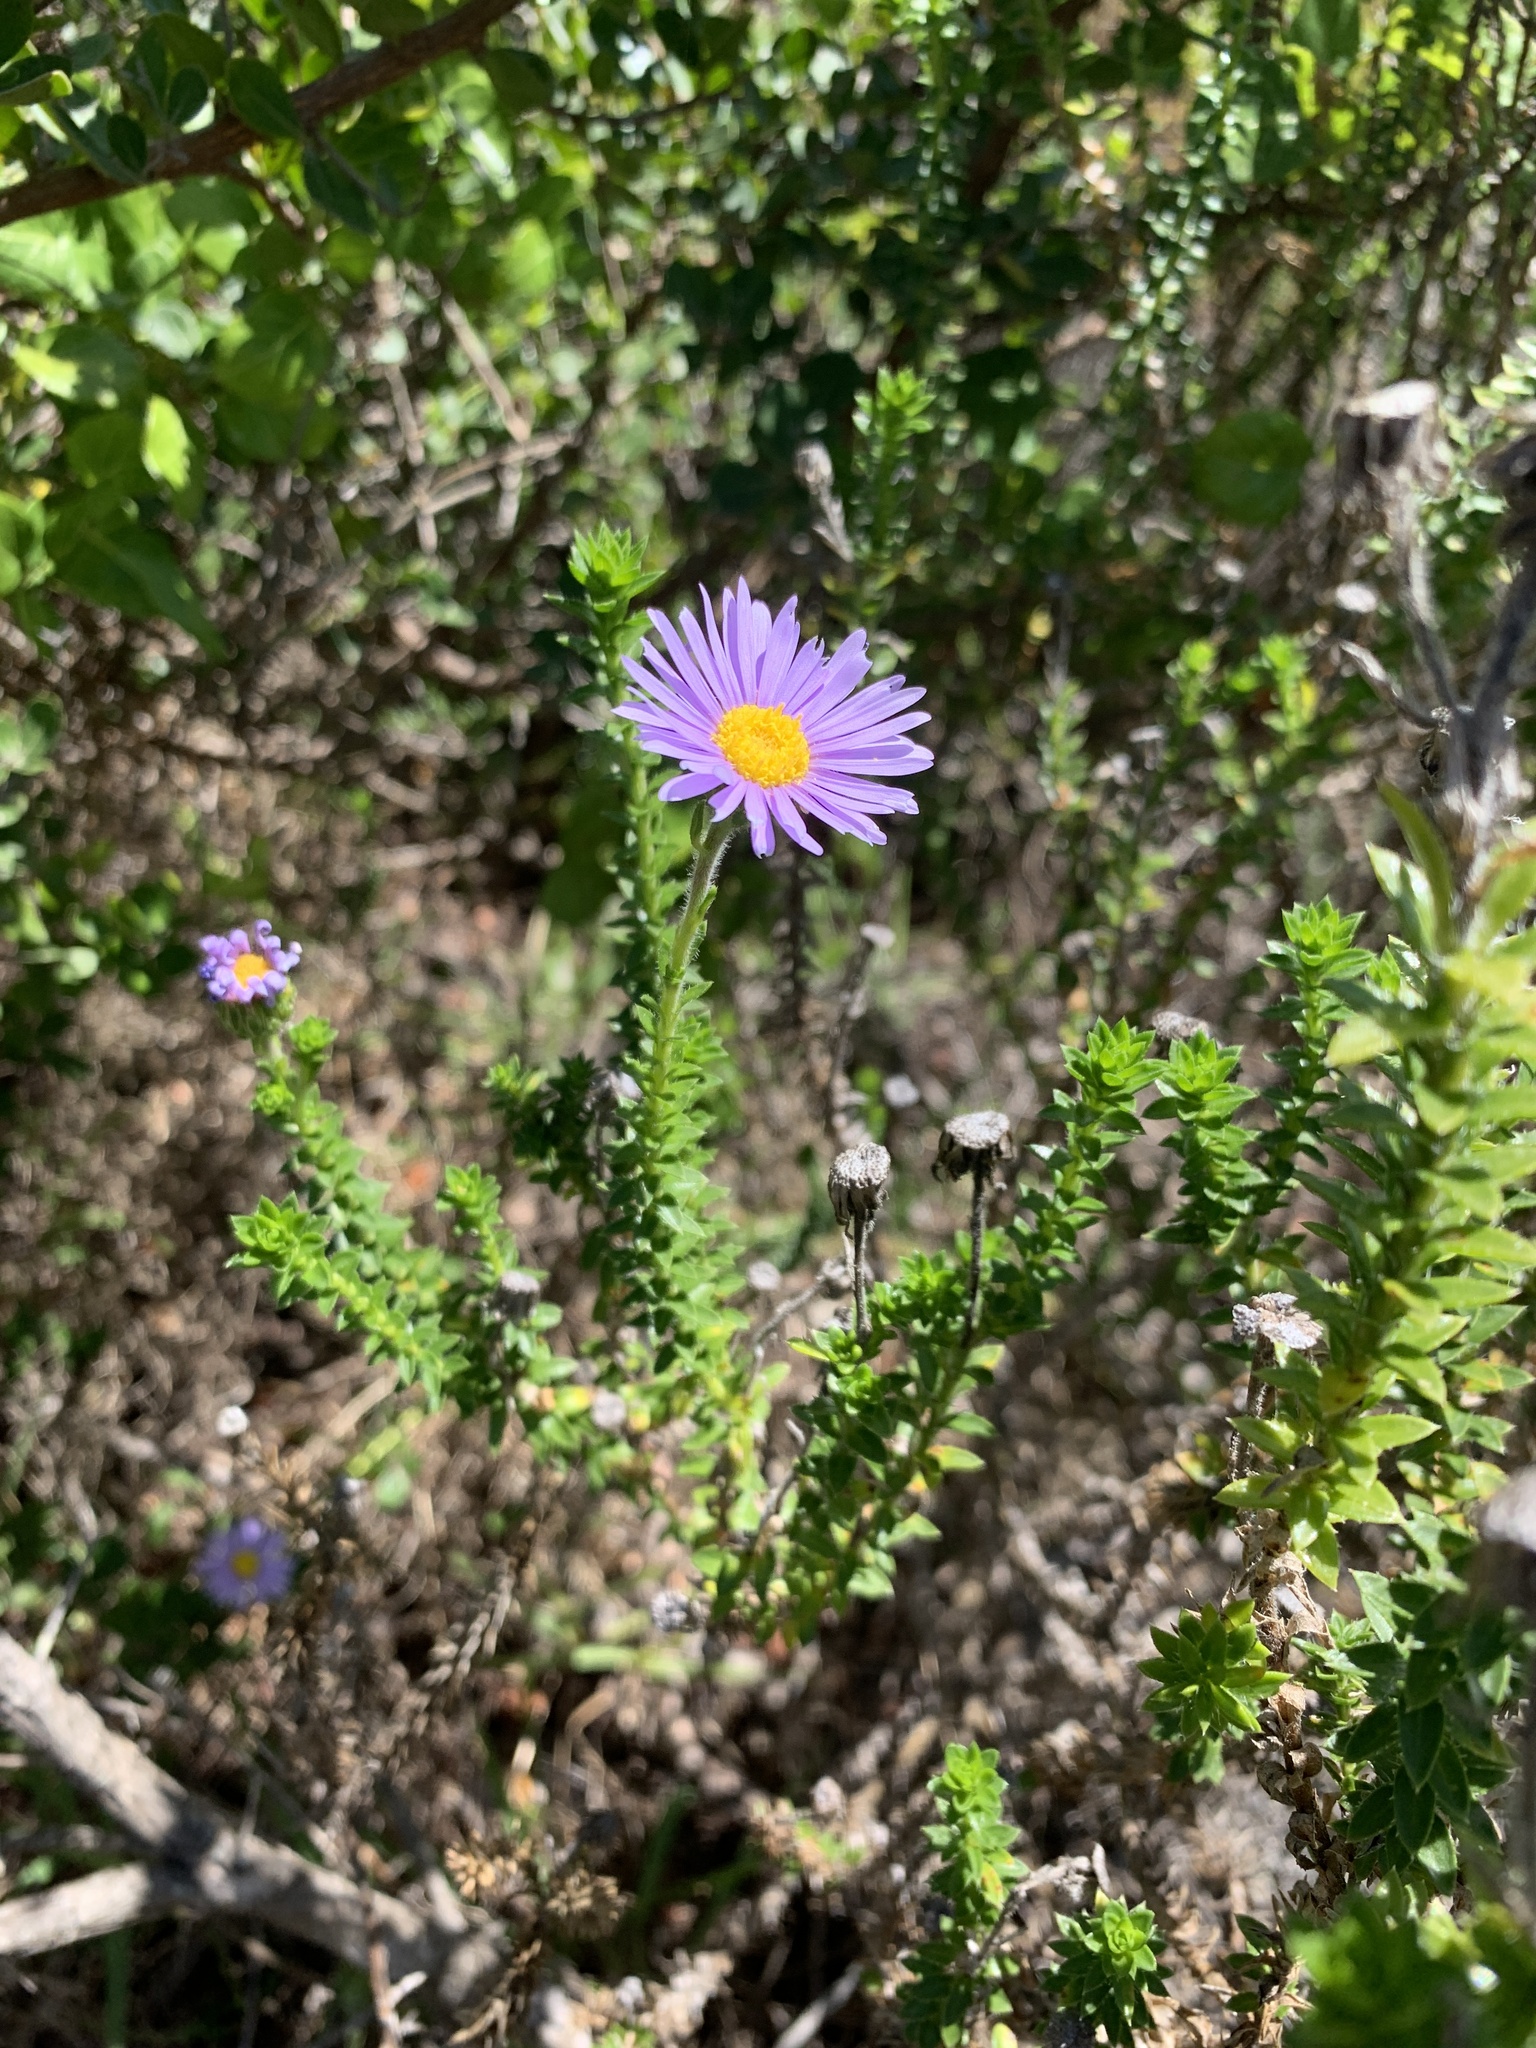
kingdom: Plantae
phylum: Tracheophyta
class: Magnoliopsida
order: Asterales
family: Asteraceae
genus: Felicia
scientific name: Felicia echinata
